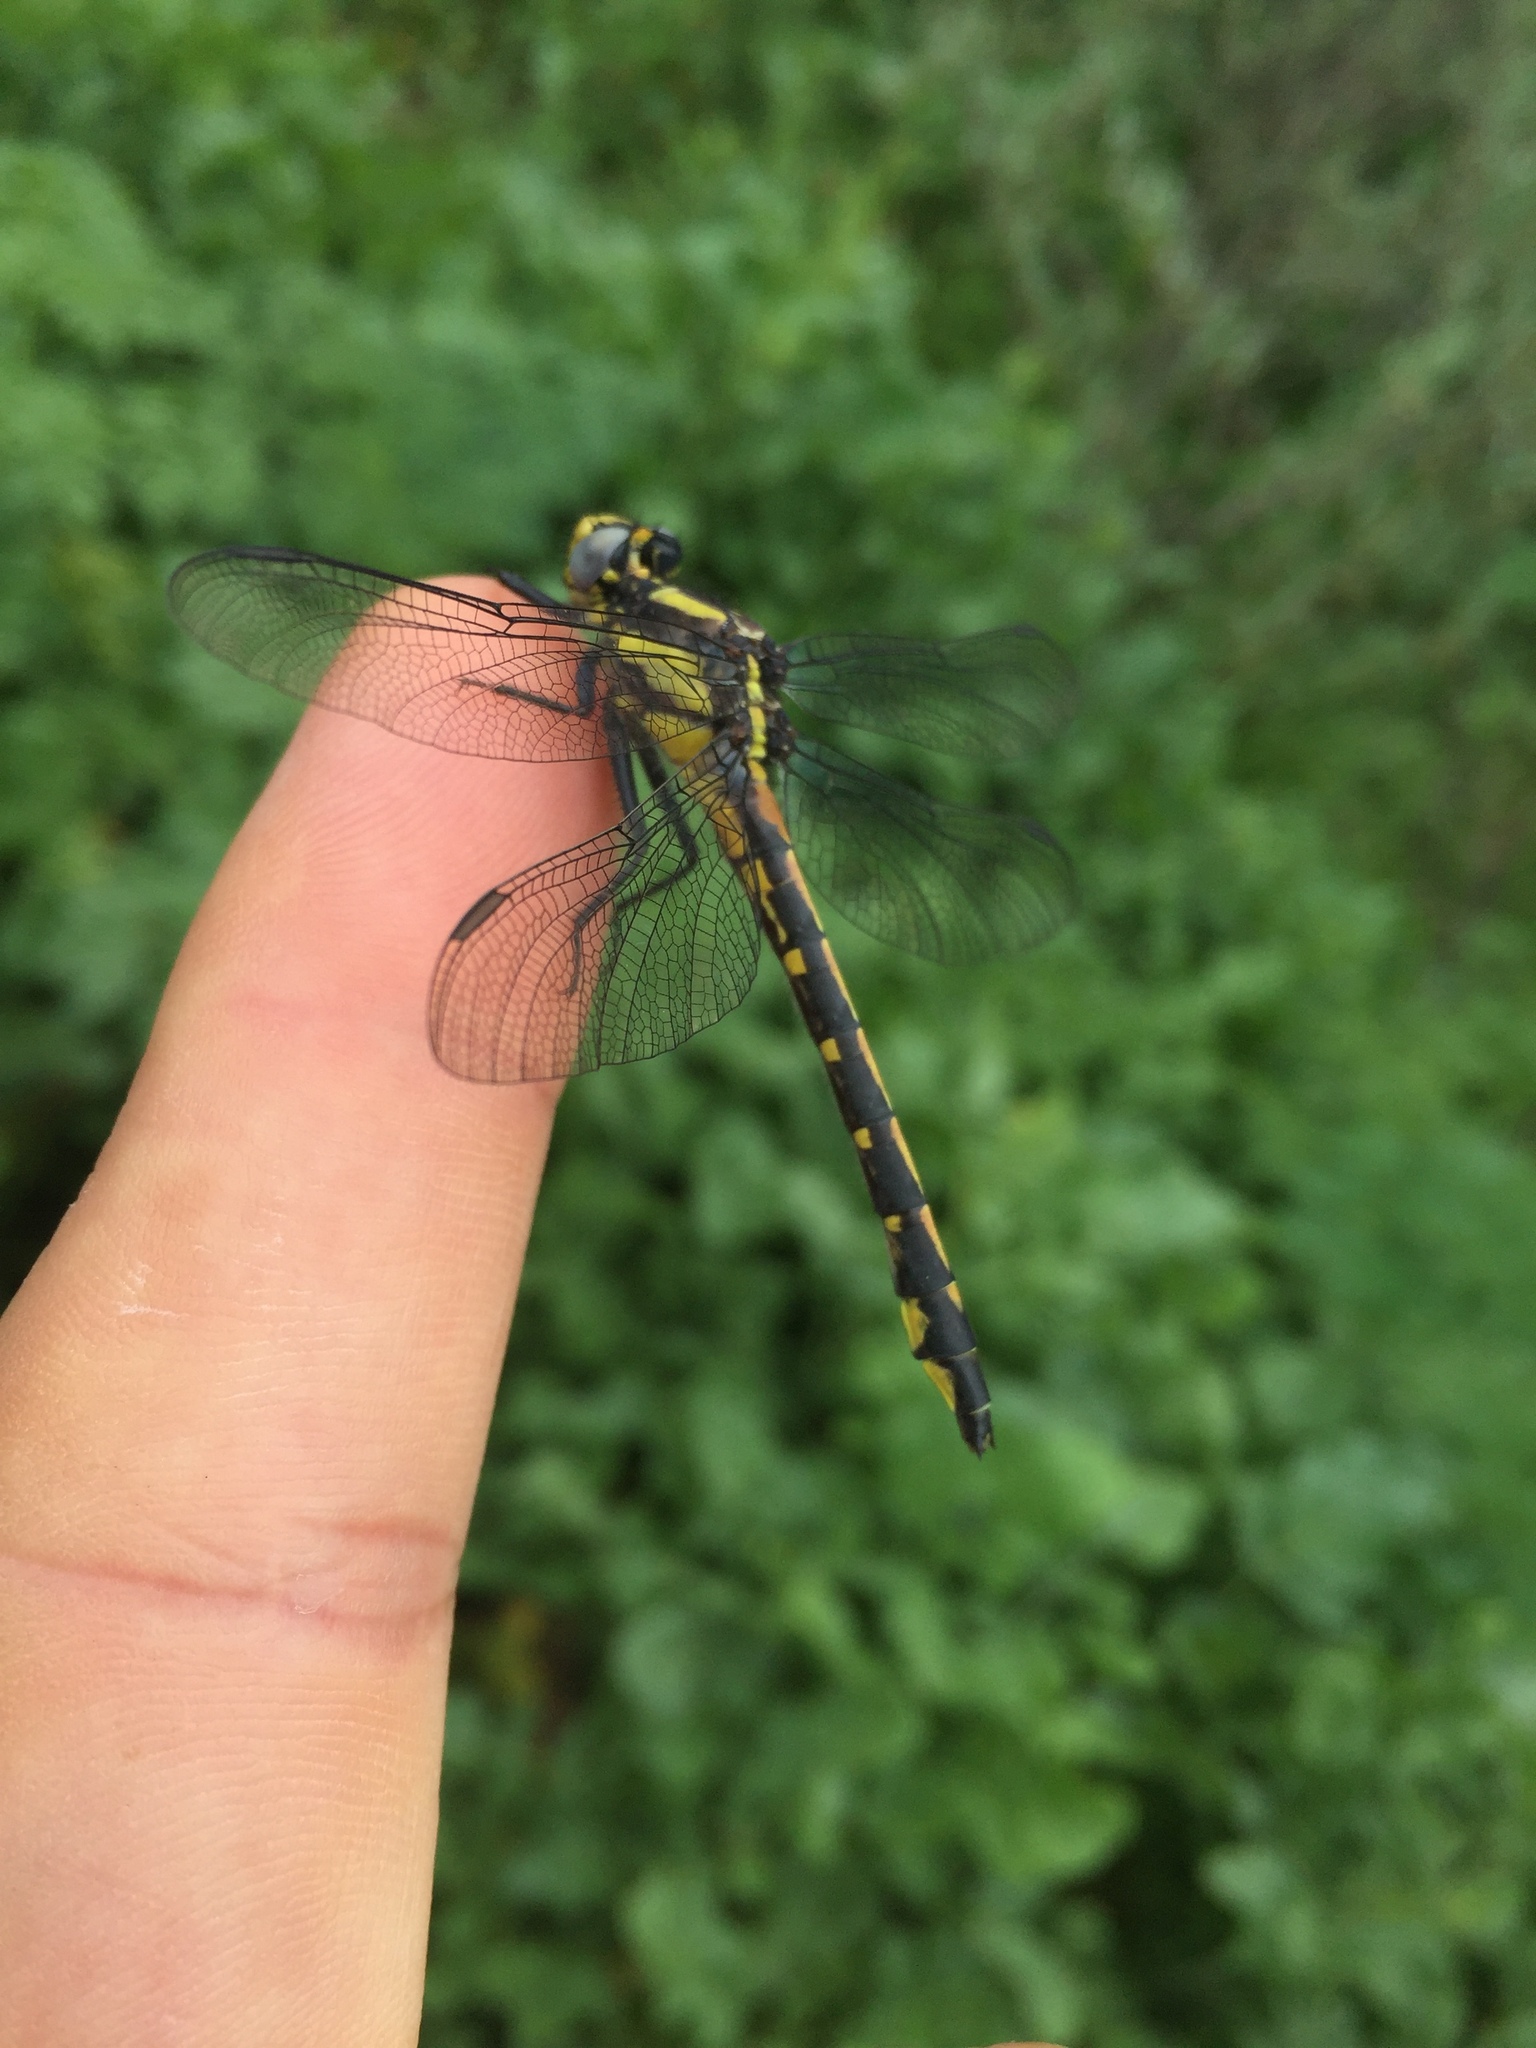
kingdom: Animalia
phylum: Arthropoda
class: Insecta
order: Odonata
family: Gomphidae
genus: Phanogomphus
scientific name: Phanogomphus kurilis
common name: Pacific clubtail
